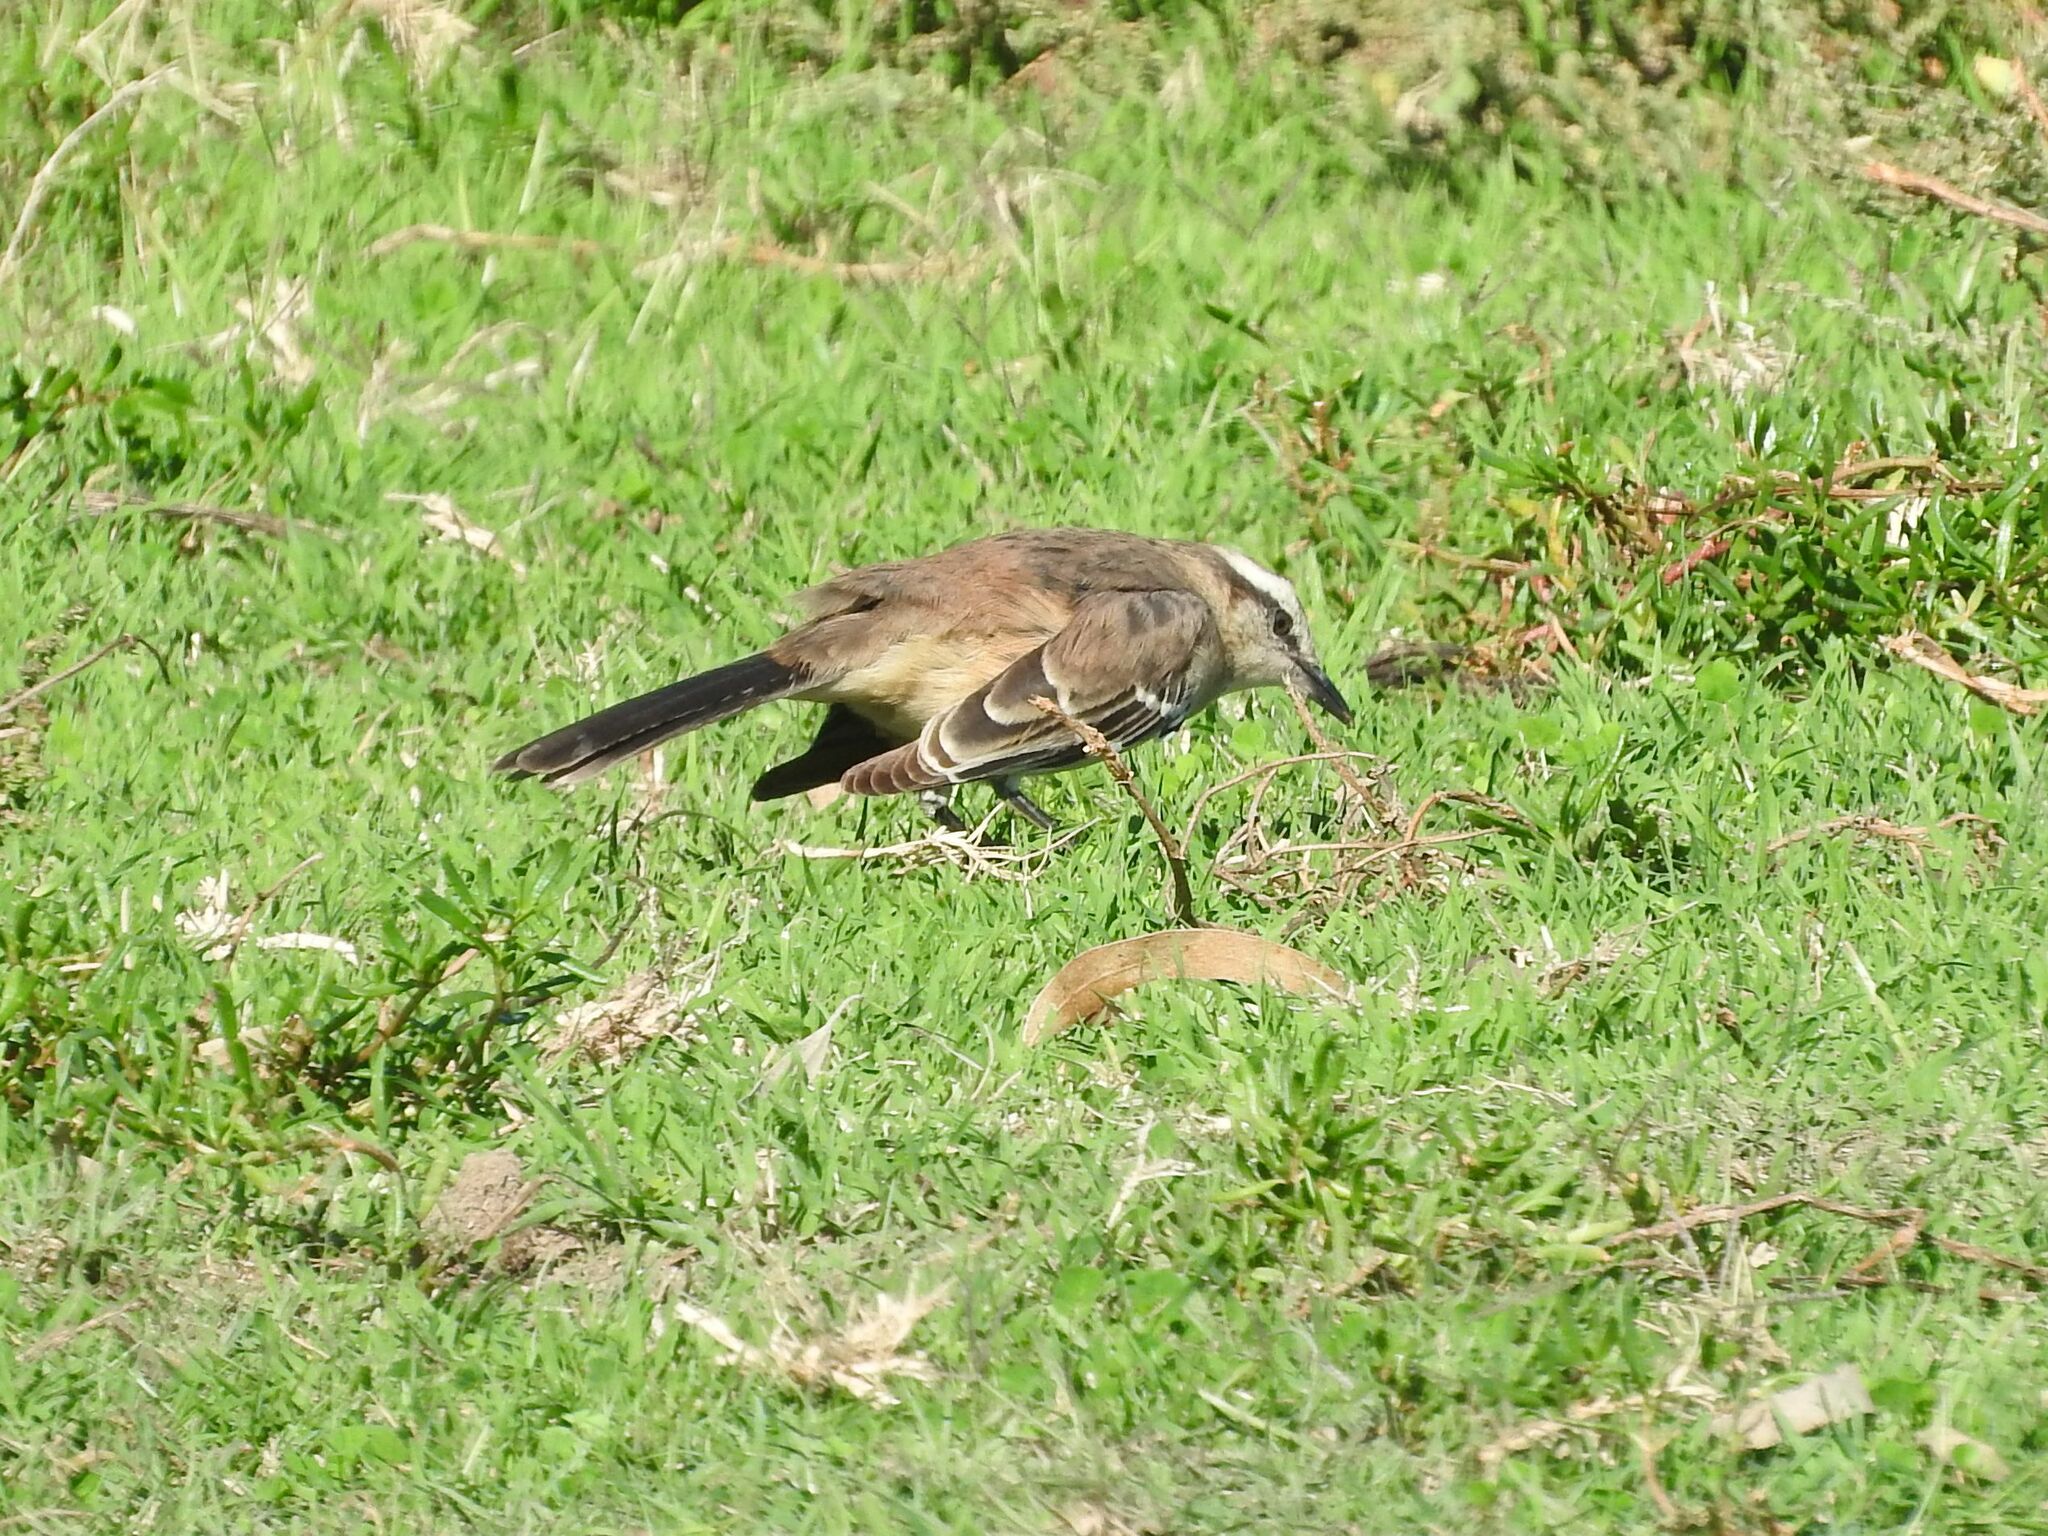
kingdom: Animalia
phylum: Chordata
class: Aves
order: Passeriformes
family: Mimidae
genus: Mimus
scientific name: Mimus saturninus
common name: Chalk-browed mockingbird
